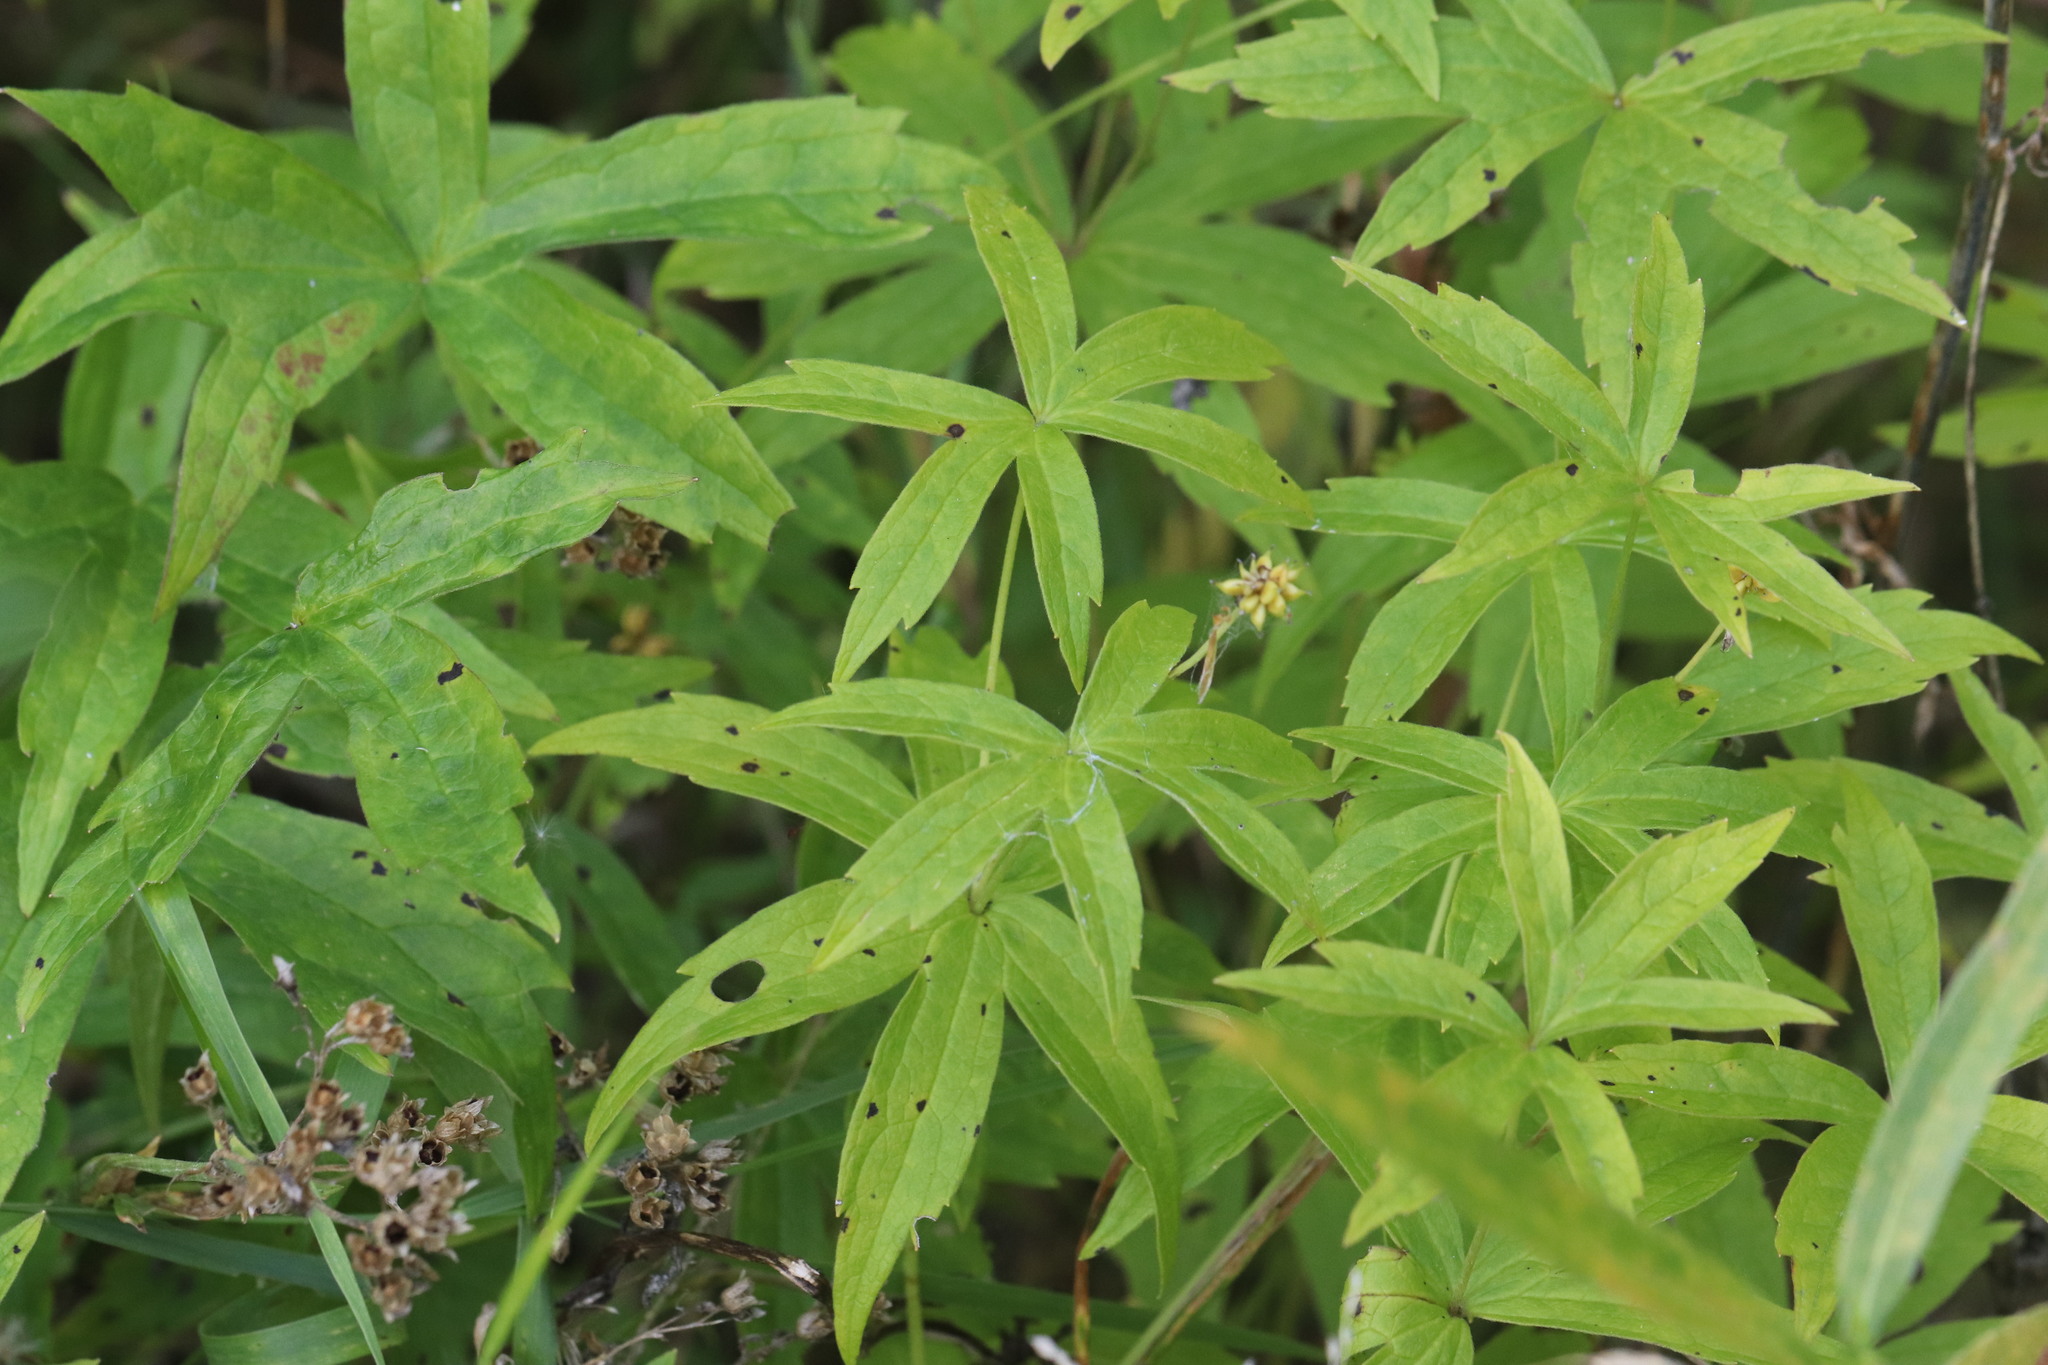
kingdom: Plantae
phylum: Tracheophyta
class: Magnoliopsida
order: Ranunculales
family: Ranunculaceae
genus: Anemonastrum
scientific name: Anemonastrum dichotomum
